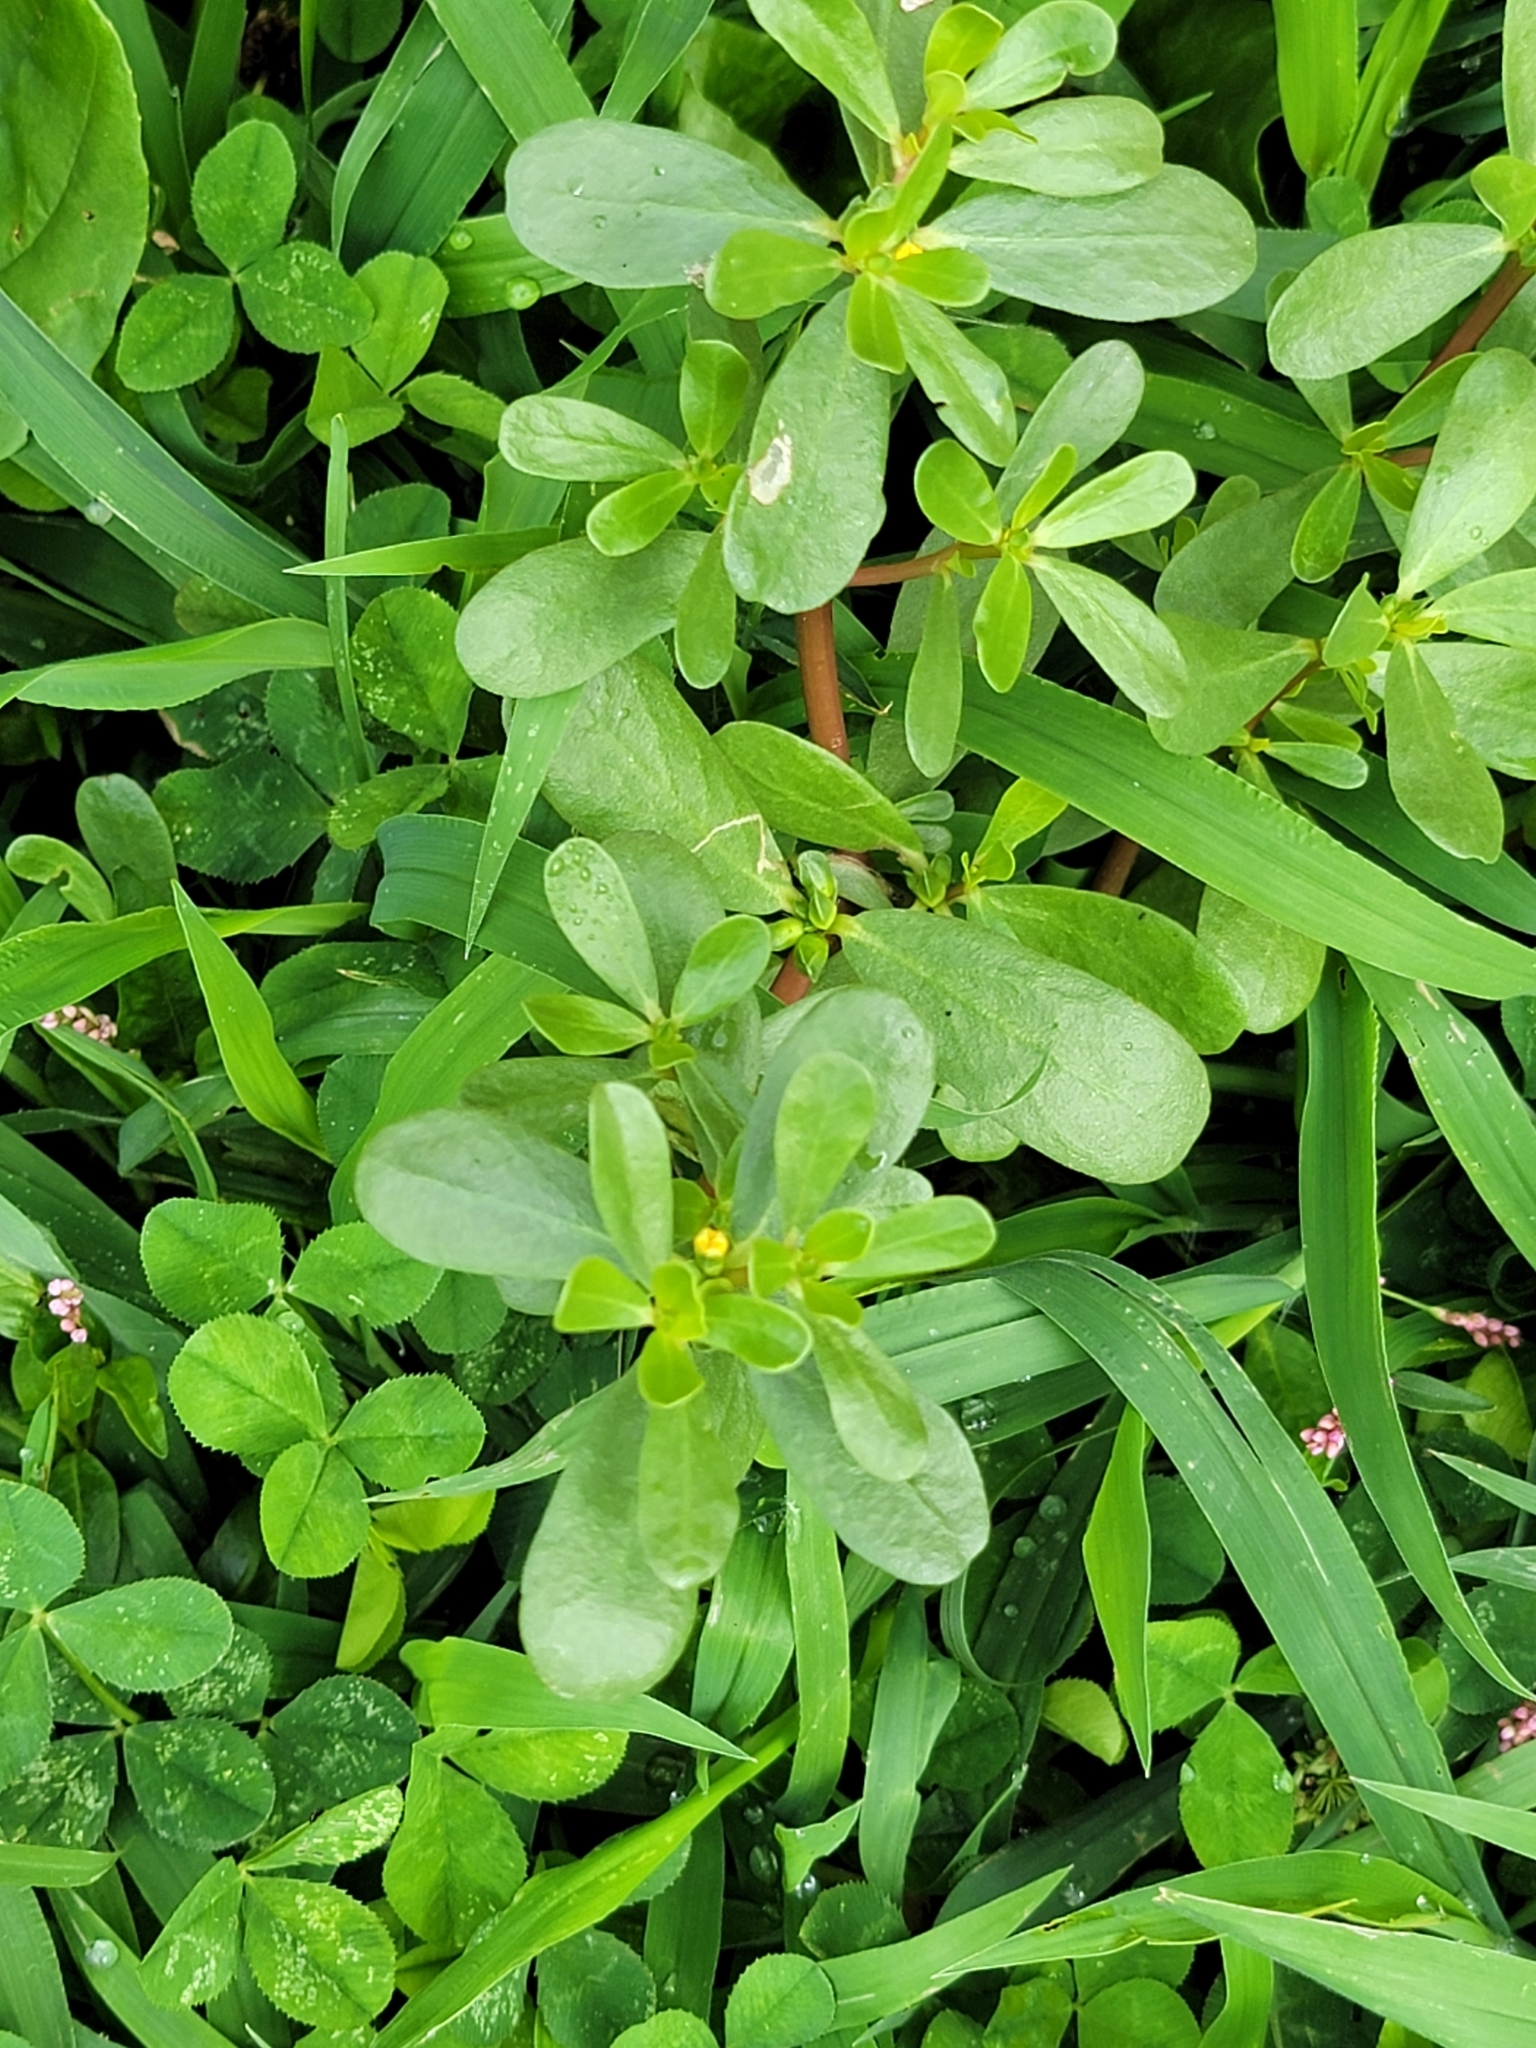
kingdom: Plantae
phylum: Tracheophyta
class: Magnoliopsida
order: Caryophyllales
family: Portulacaceae
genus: Portulaca
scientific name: Portulaca oleracea
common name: Common purslane
